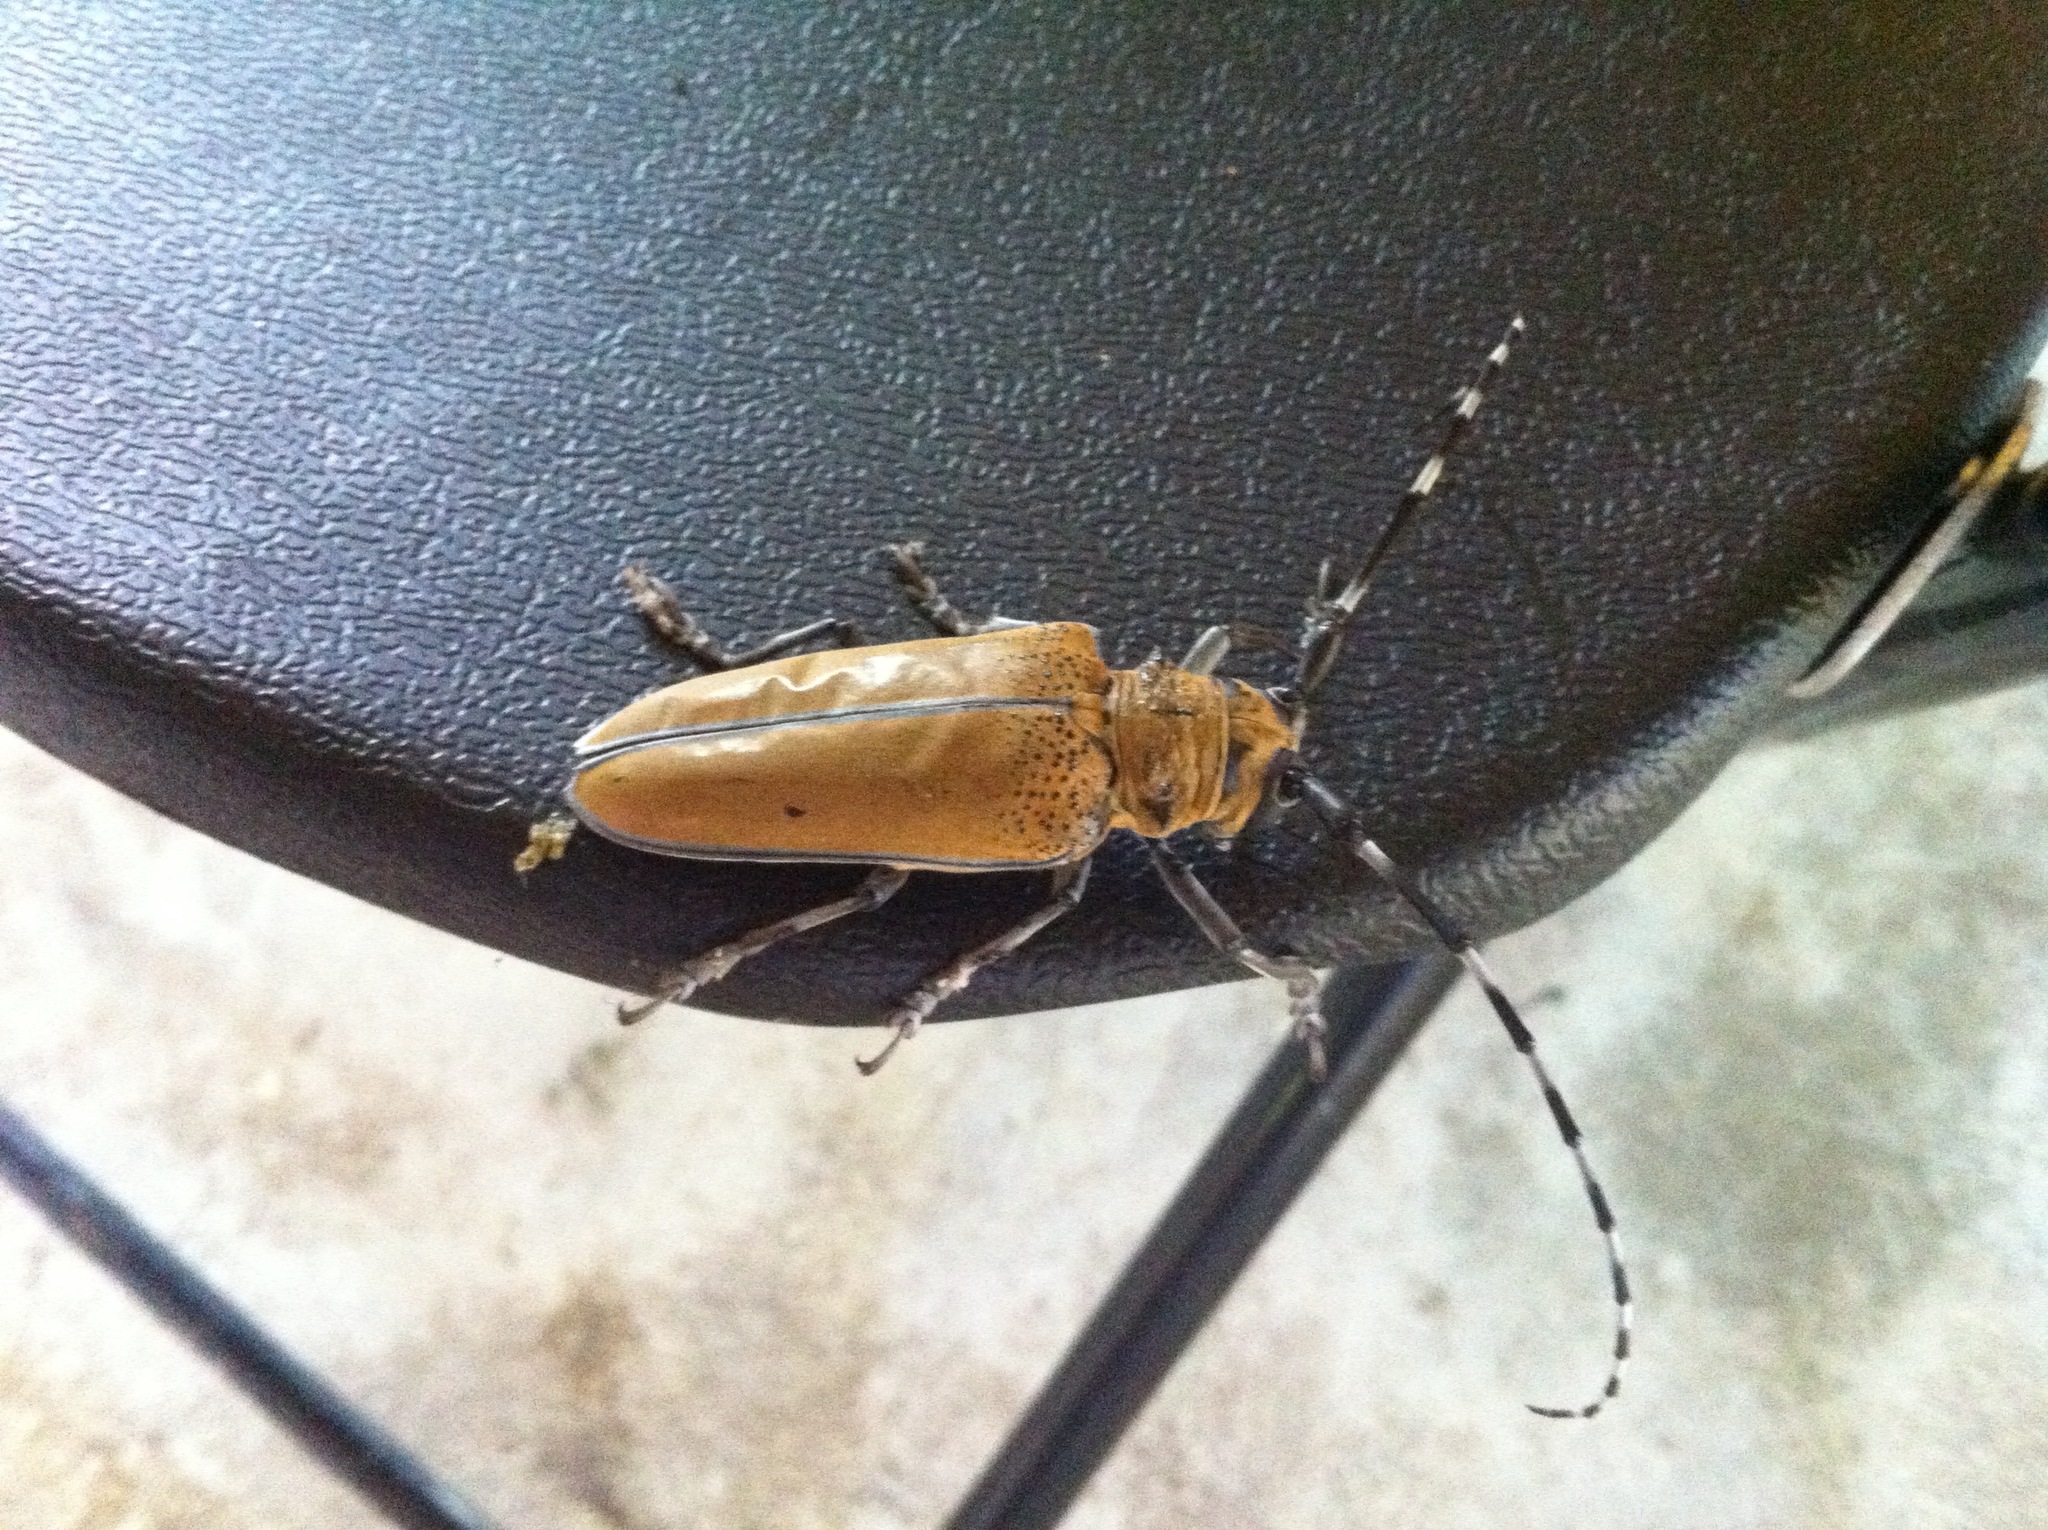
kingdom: Animalia
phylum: Arthropoda
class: Insecta
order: Coleoptera
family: Cerambycidae
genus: Apriona
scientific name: Apriona rugicollis
